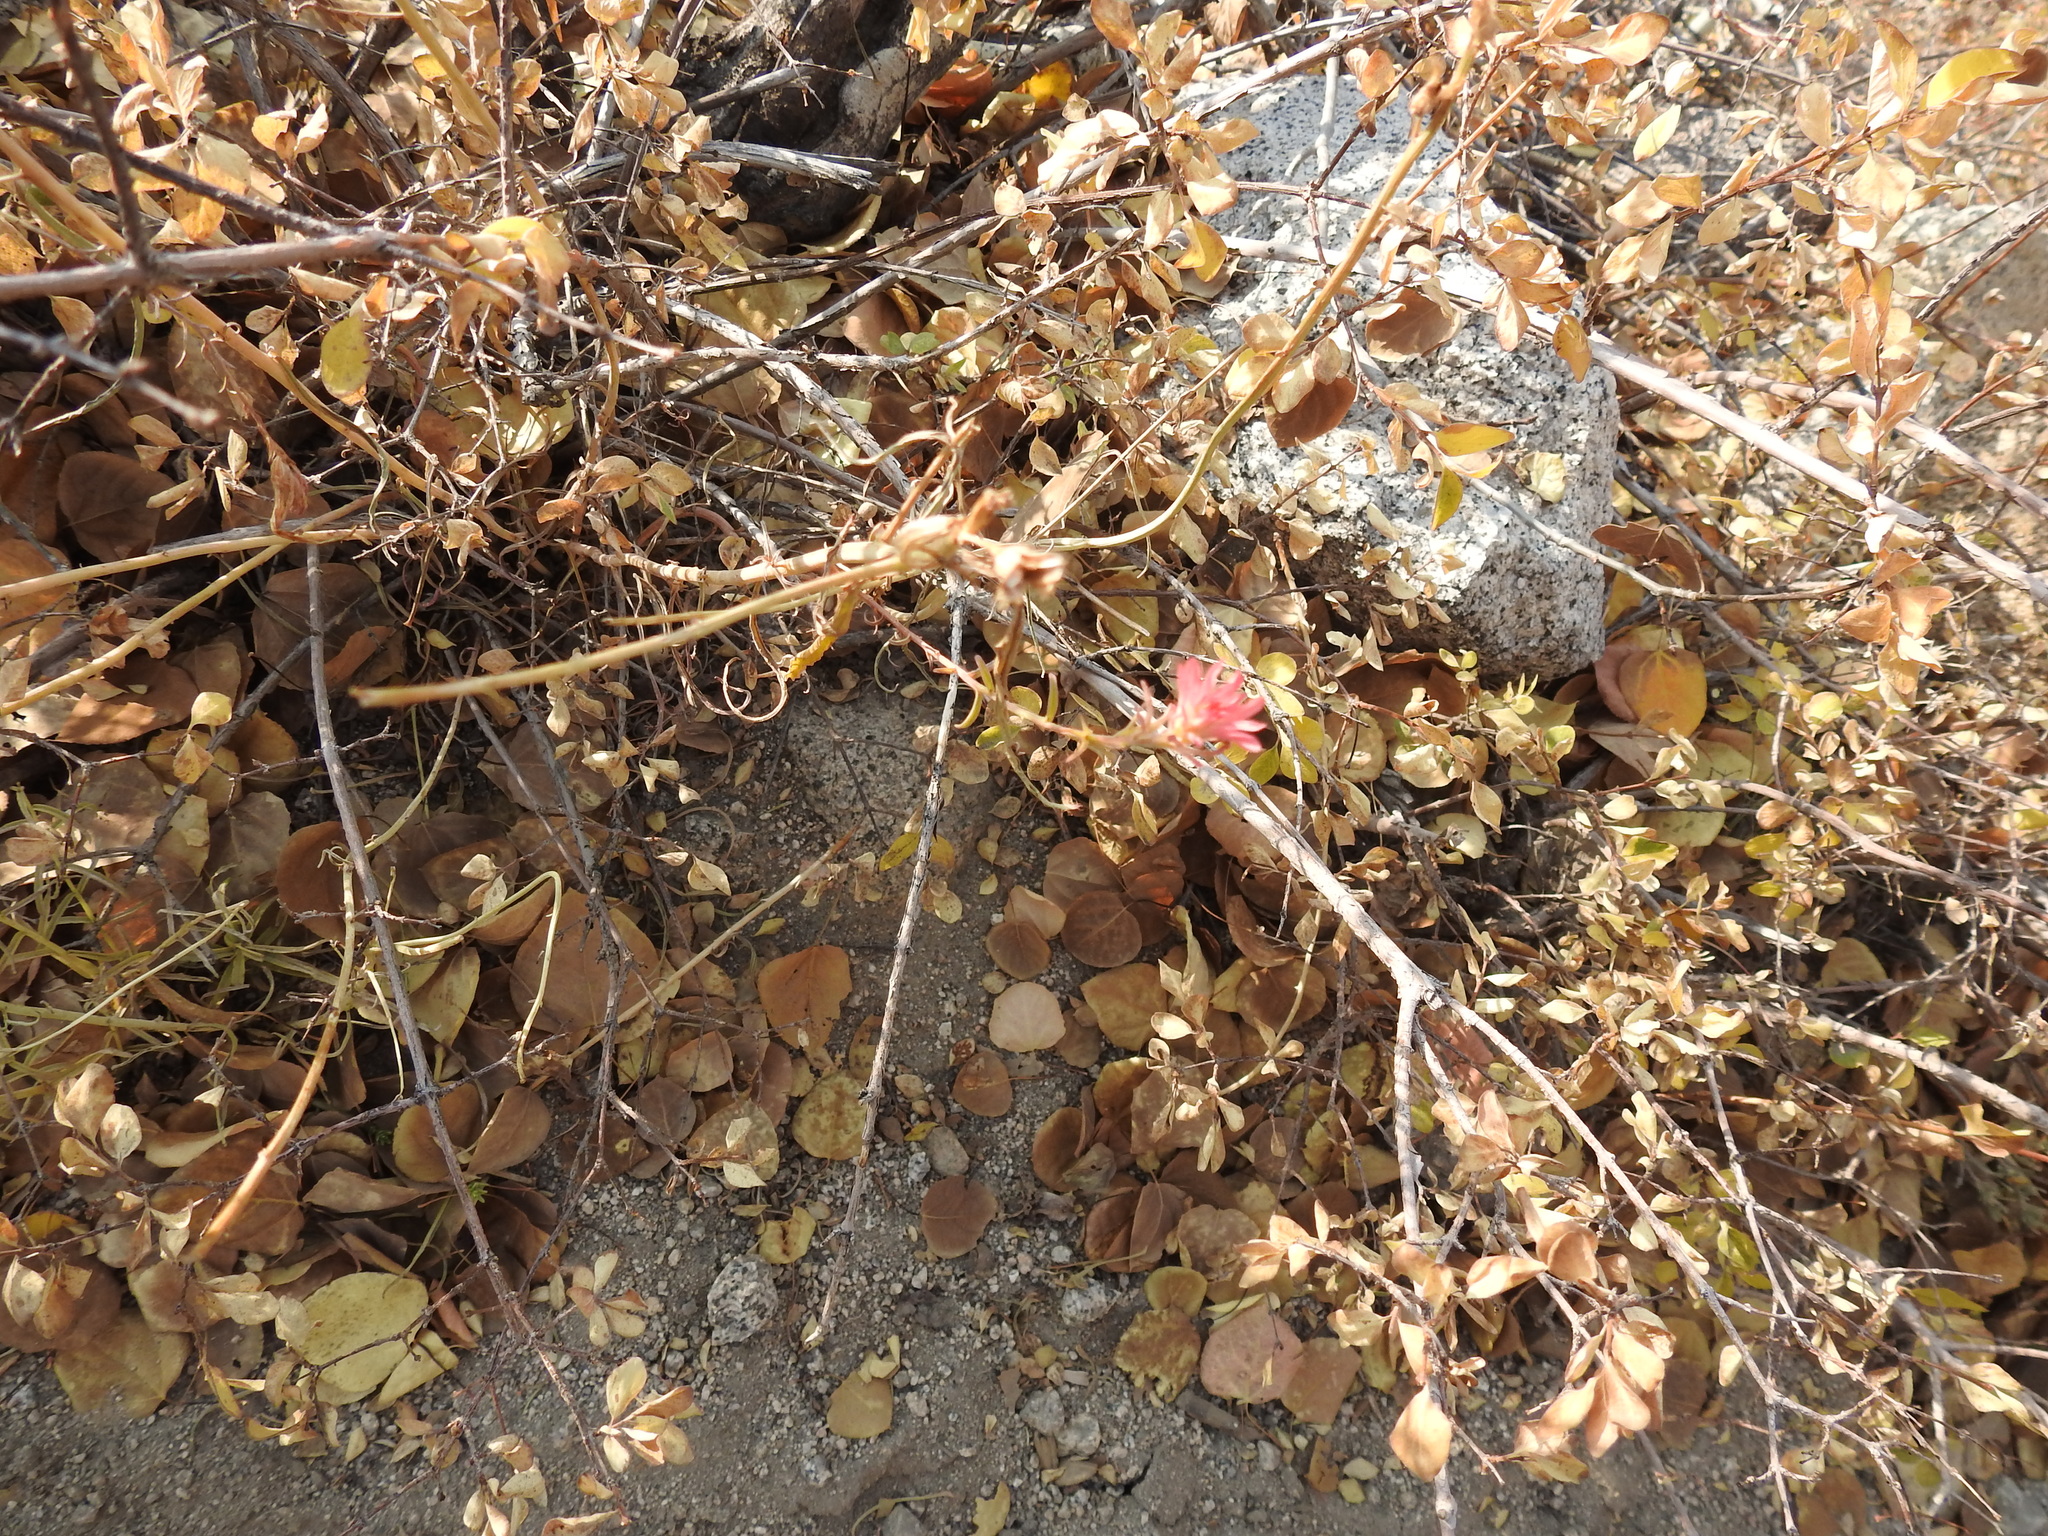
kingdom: Plantae
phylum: Tracheophyta
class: Magnoliopsida
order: Lamiales
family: Orobanchaceae
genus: Castilleja
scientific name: Castilleja linariifolia
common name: Wyoming paintbrush
